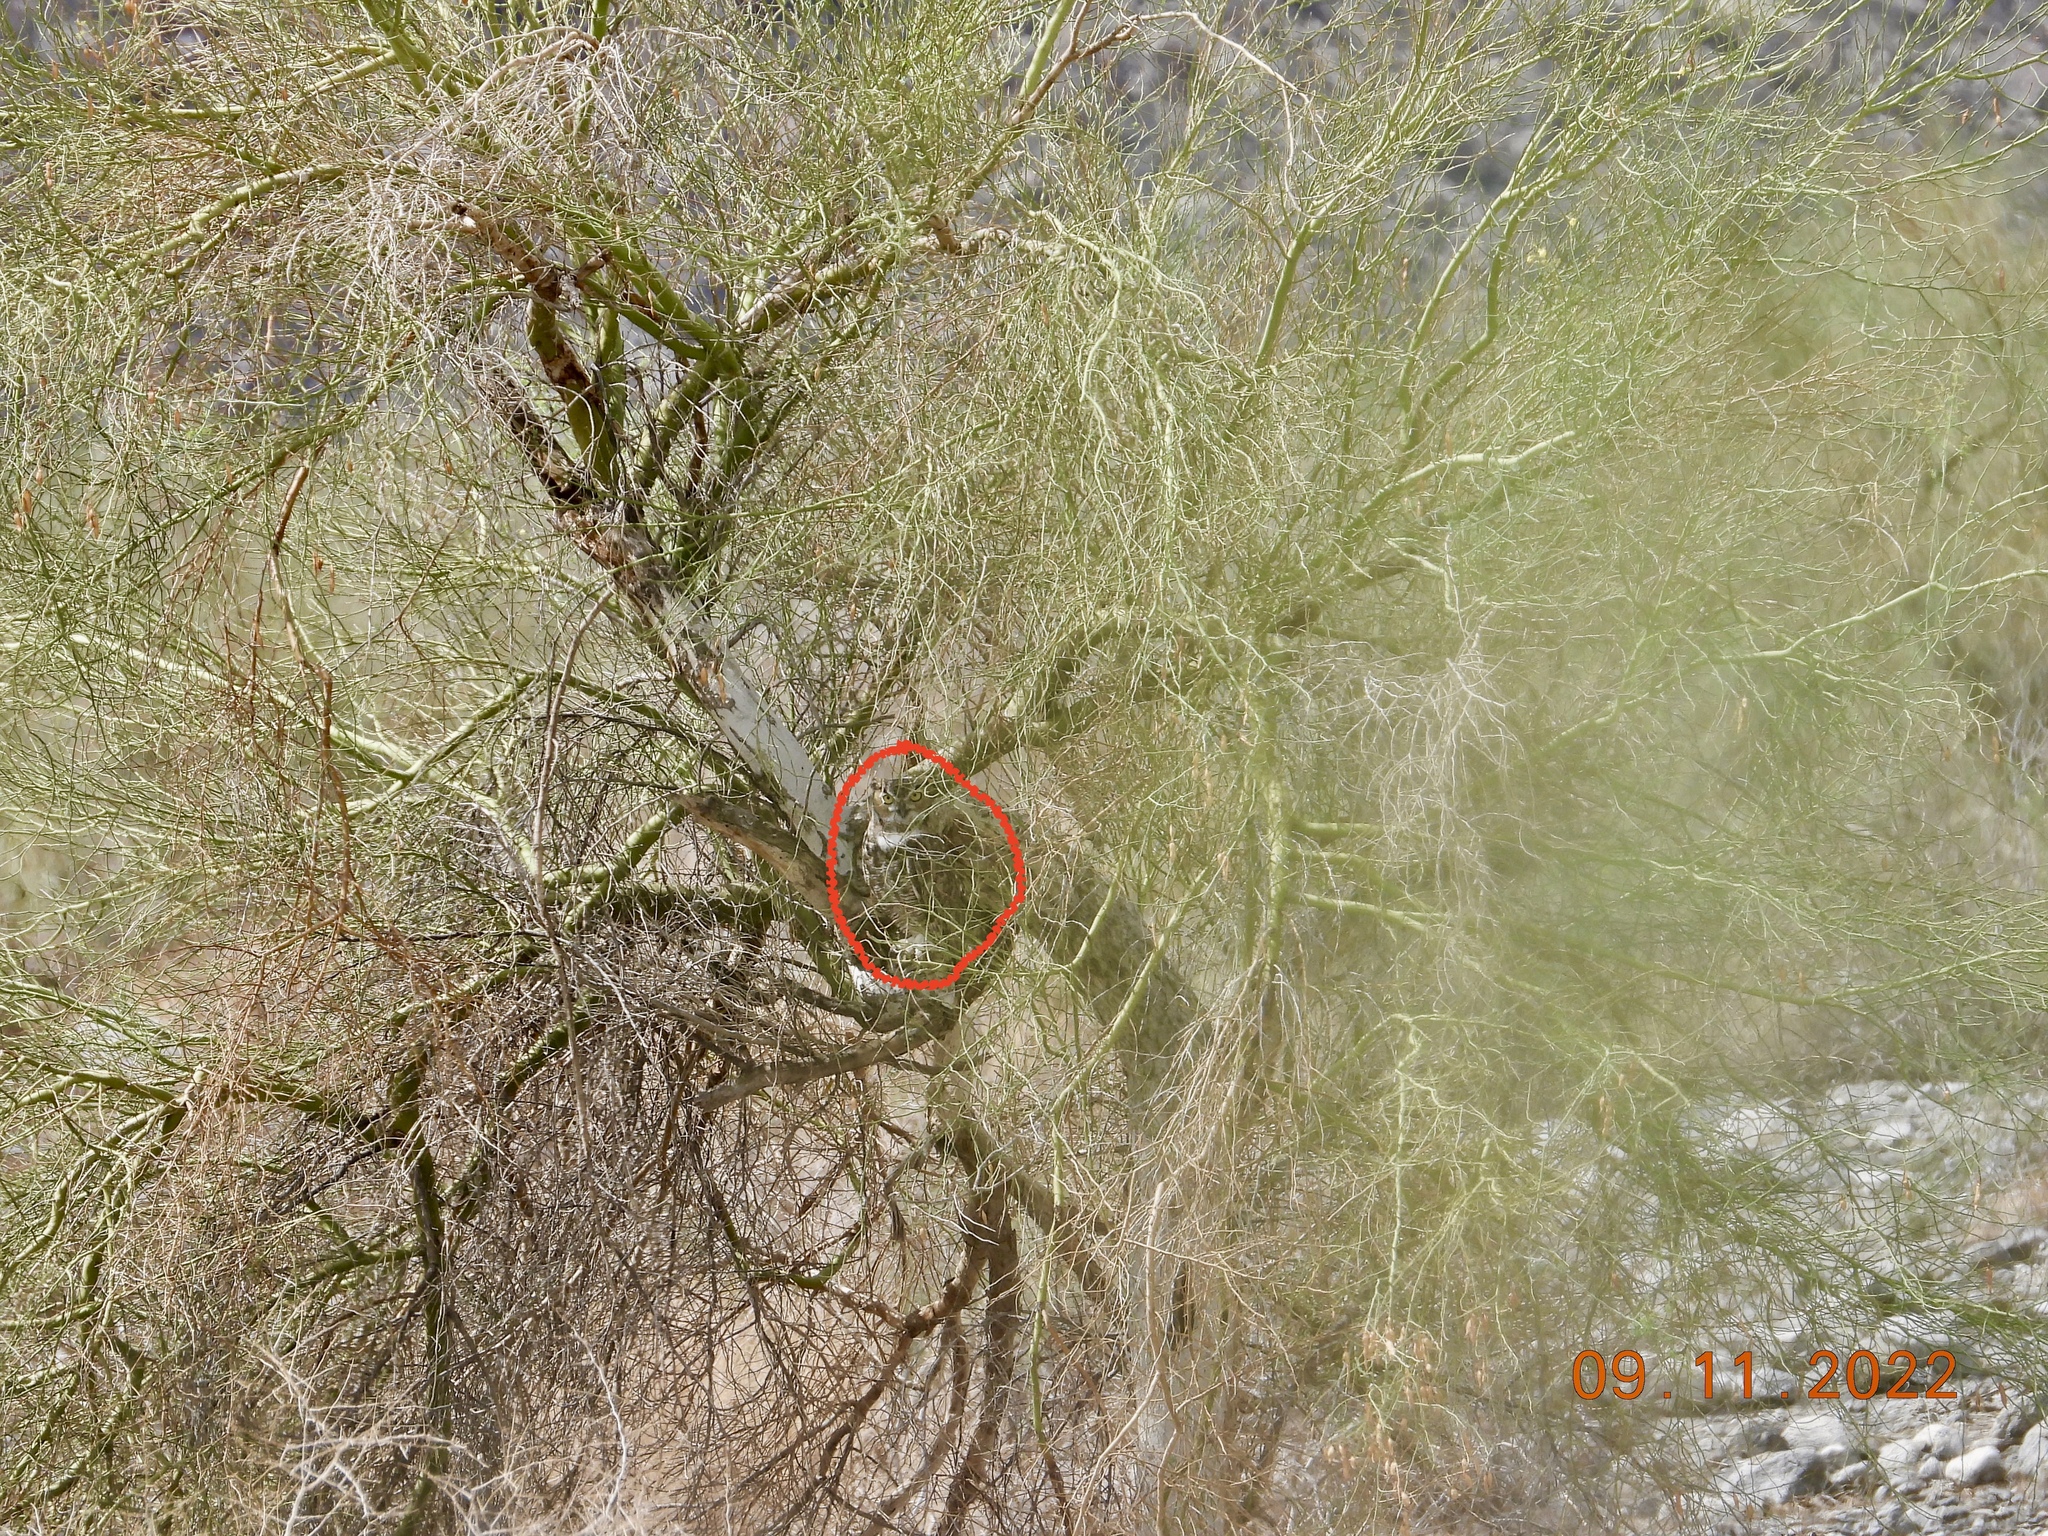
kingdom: Animalia
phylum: Chordata
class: Aves
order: Strigiformes
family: Strigidae
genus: Bubo
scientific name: Bubo virginianus
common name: Great horned owl
